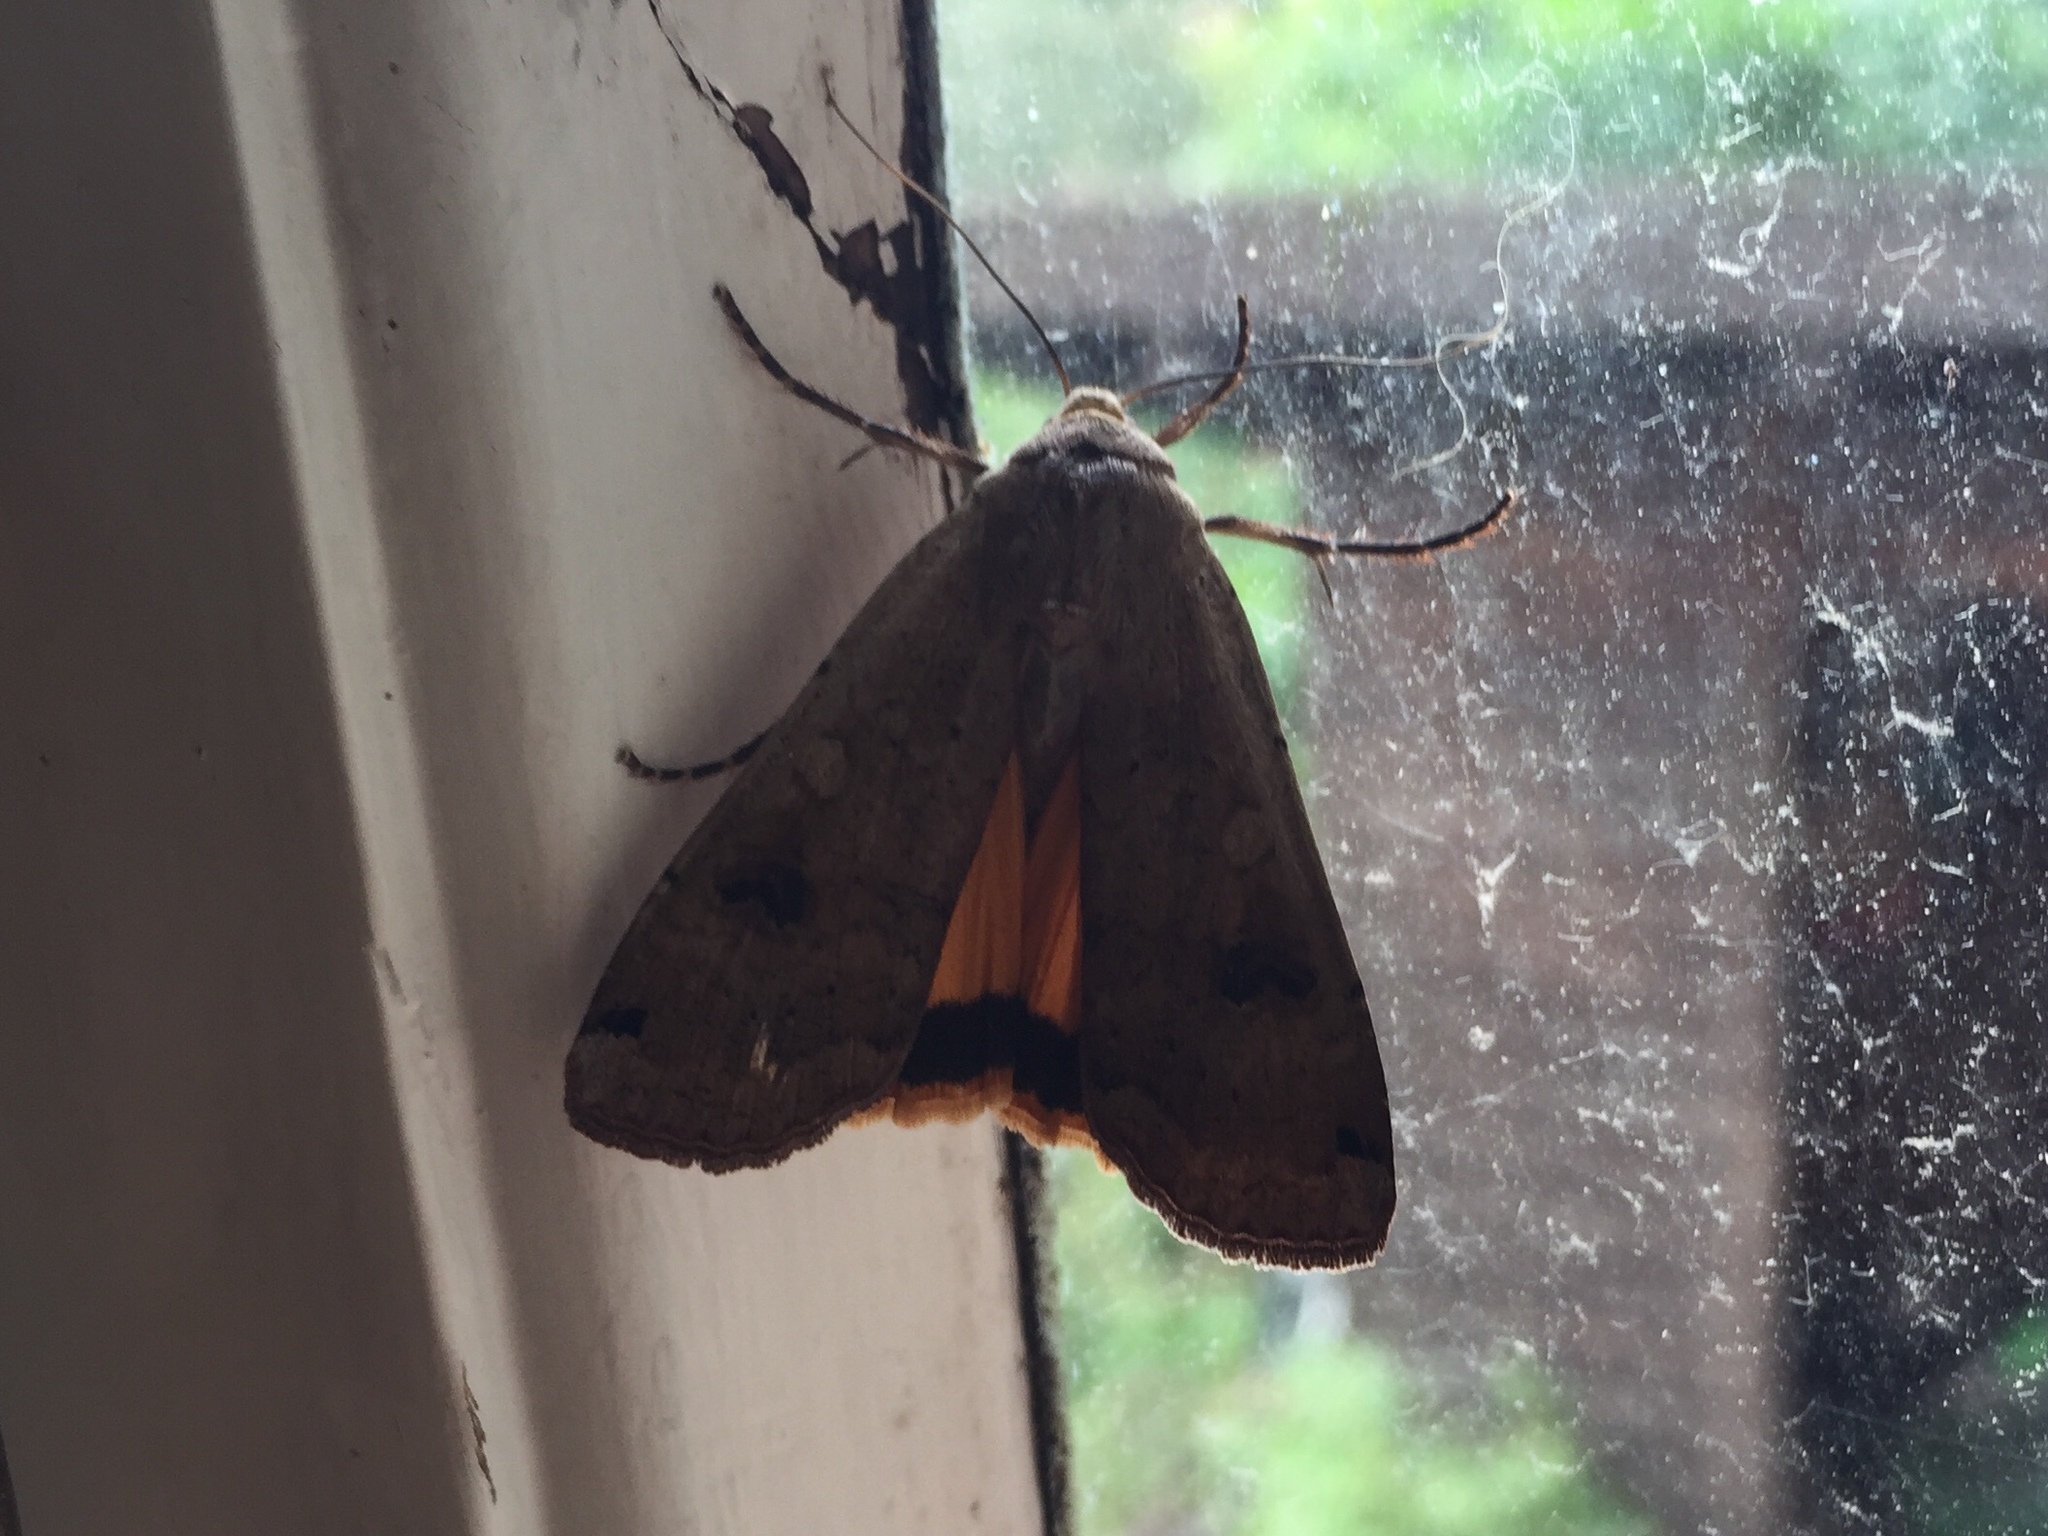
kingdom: Animalia
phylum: Arthropoda
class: Insecta
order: Lepidoptera
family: Noctuidae
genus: Noctua
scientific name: Noctua pronuba
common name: Large yellow underwing
